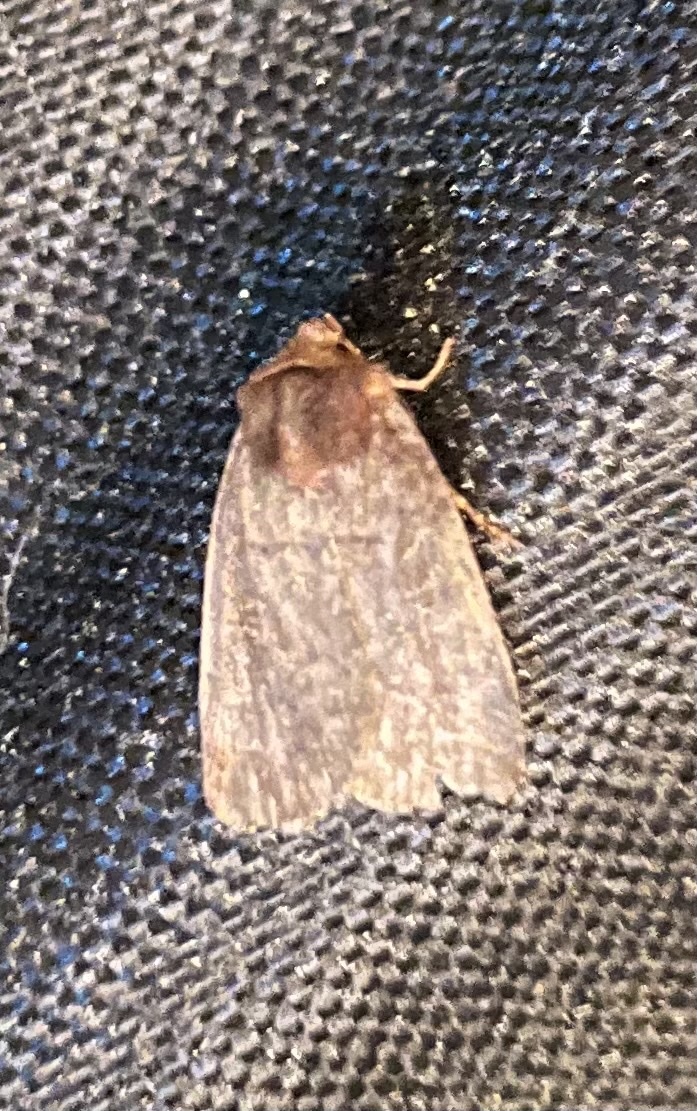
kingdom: Animalia
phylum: Arthropoda
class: Insecta
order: Lepidoptera
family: Noctuidae
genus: Orthodes
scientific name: Orthodes cynica
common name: Cynical quaker
